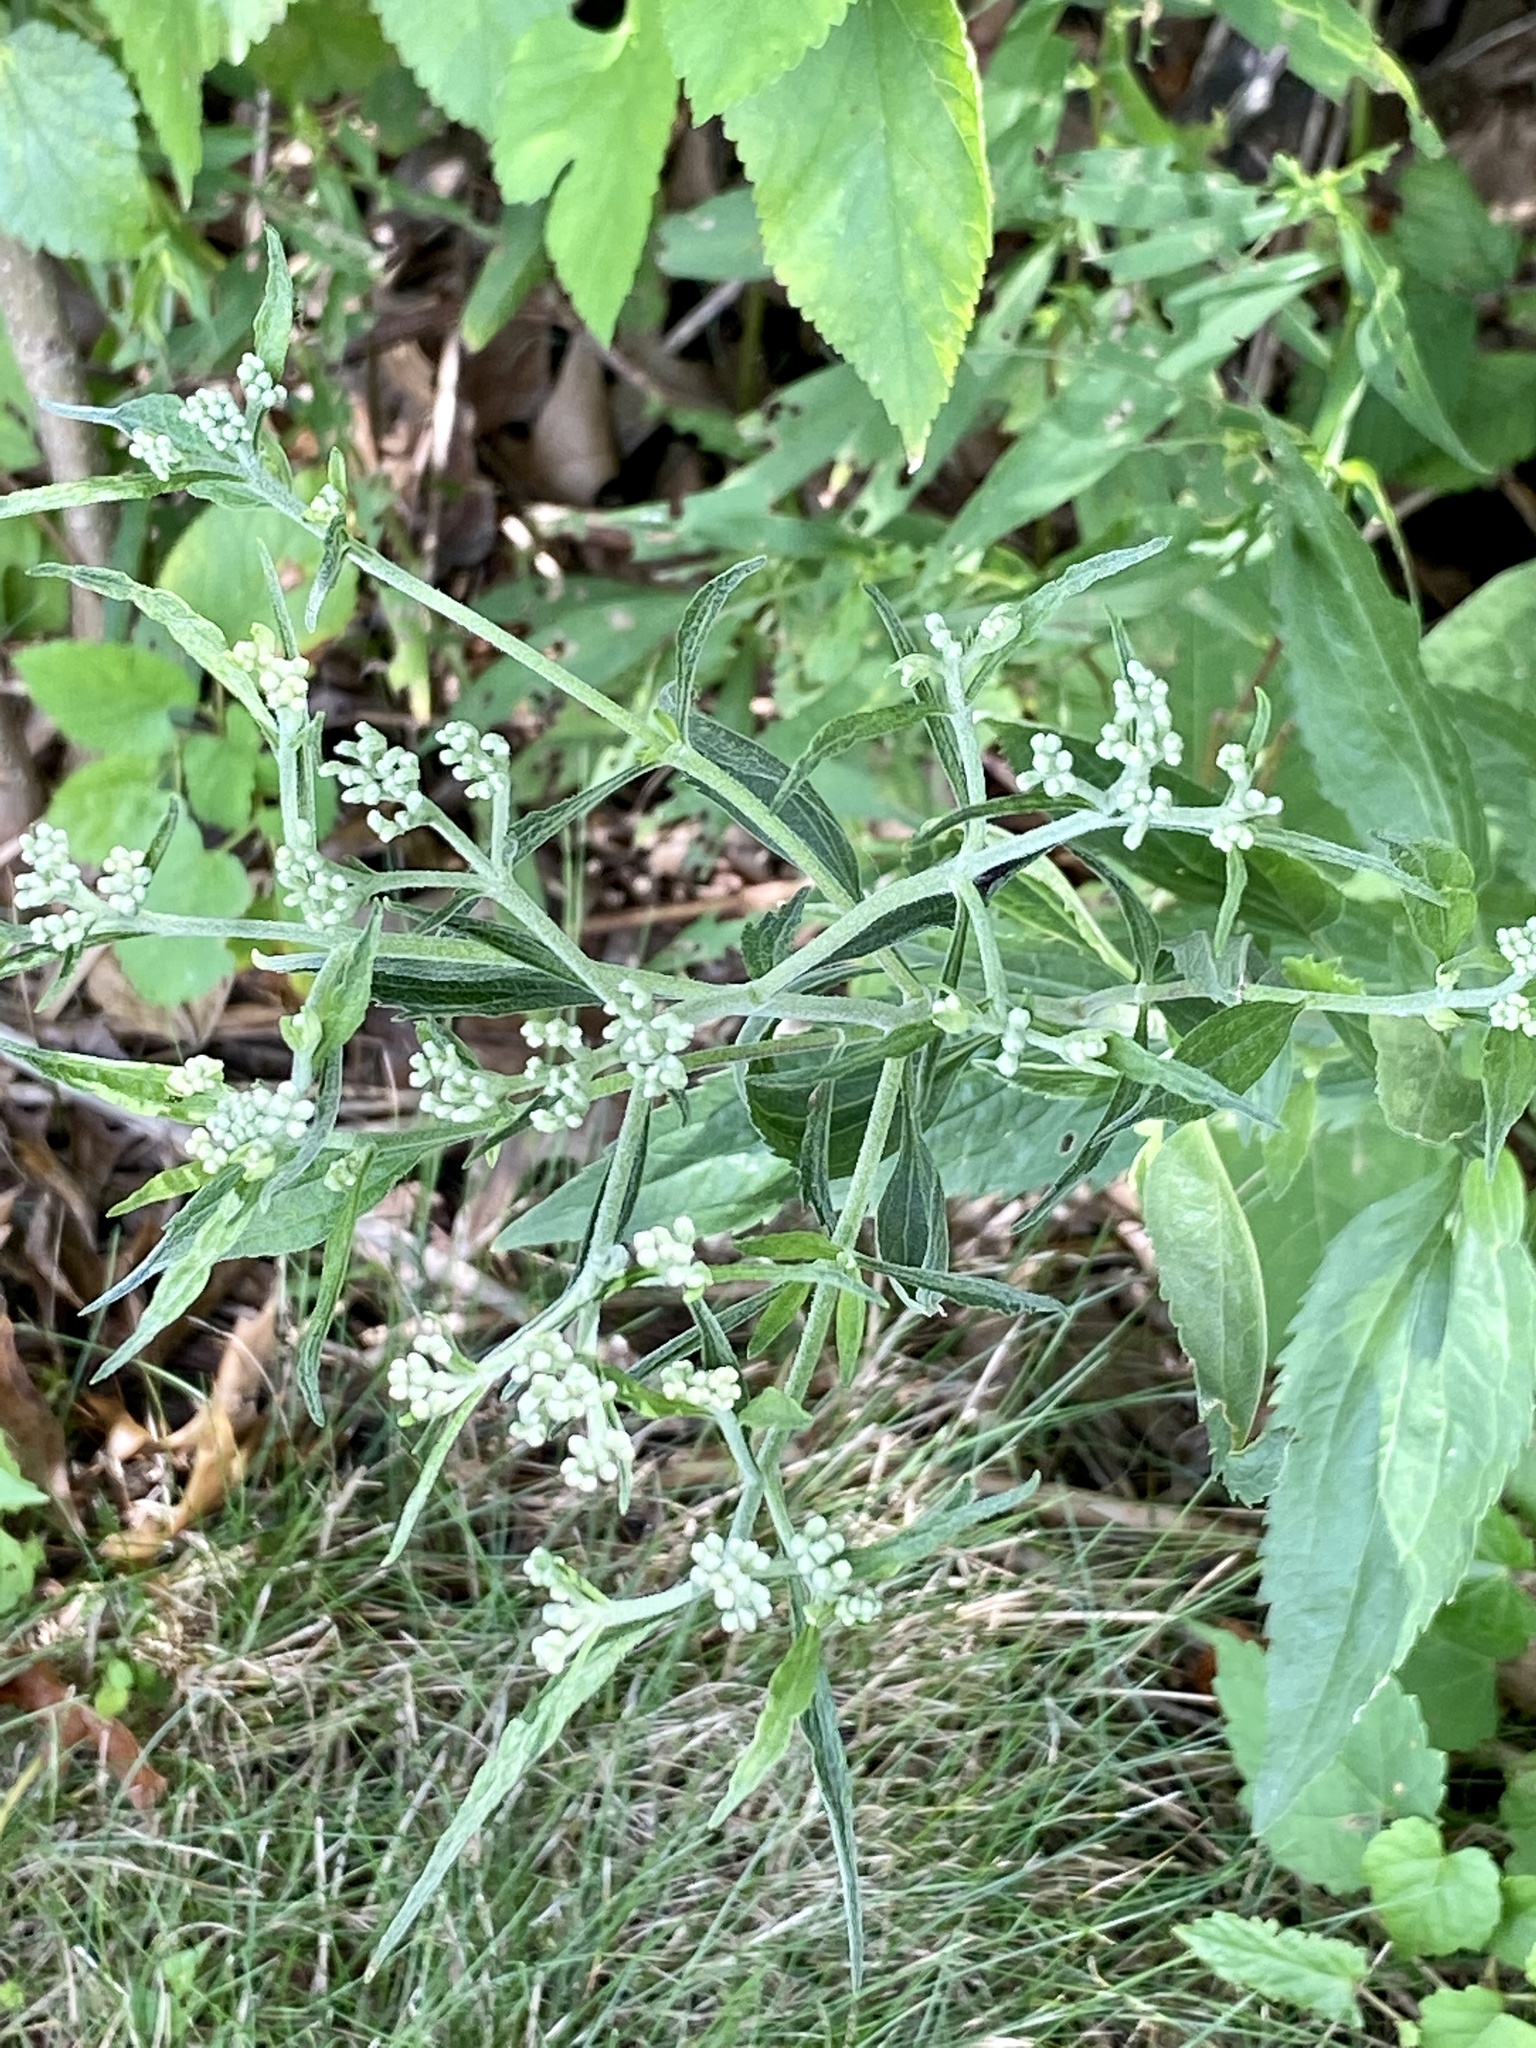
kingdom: Plantae
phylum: Tracheophyta
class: Magnoliopsida
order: Asterales
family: Asteraceae
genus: Eupatorium
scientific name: Eupatorium serotinum
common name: Late boneset
